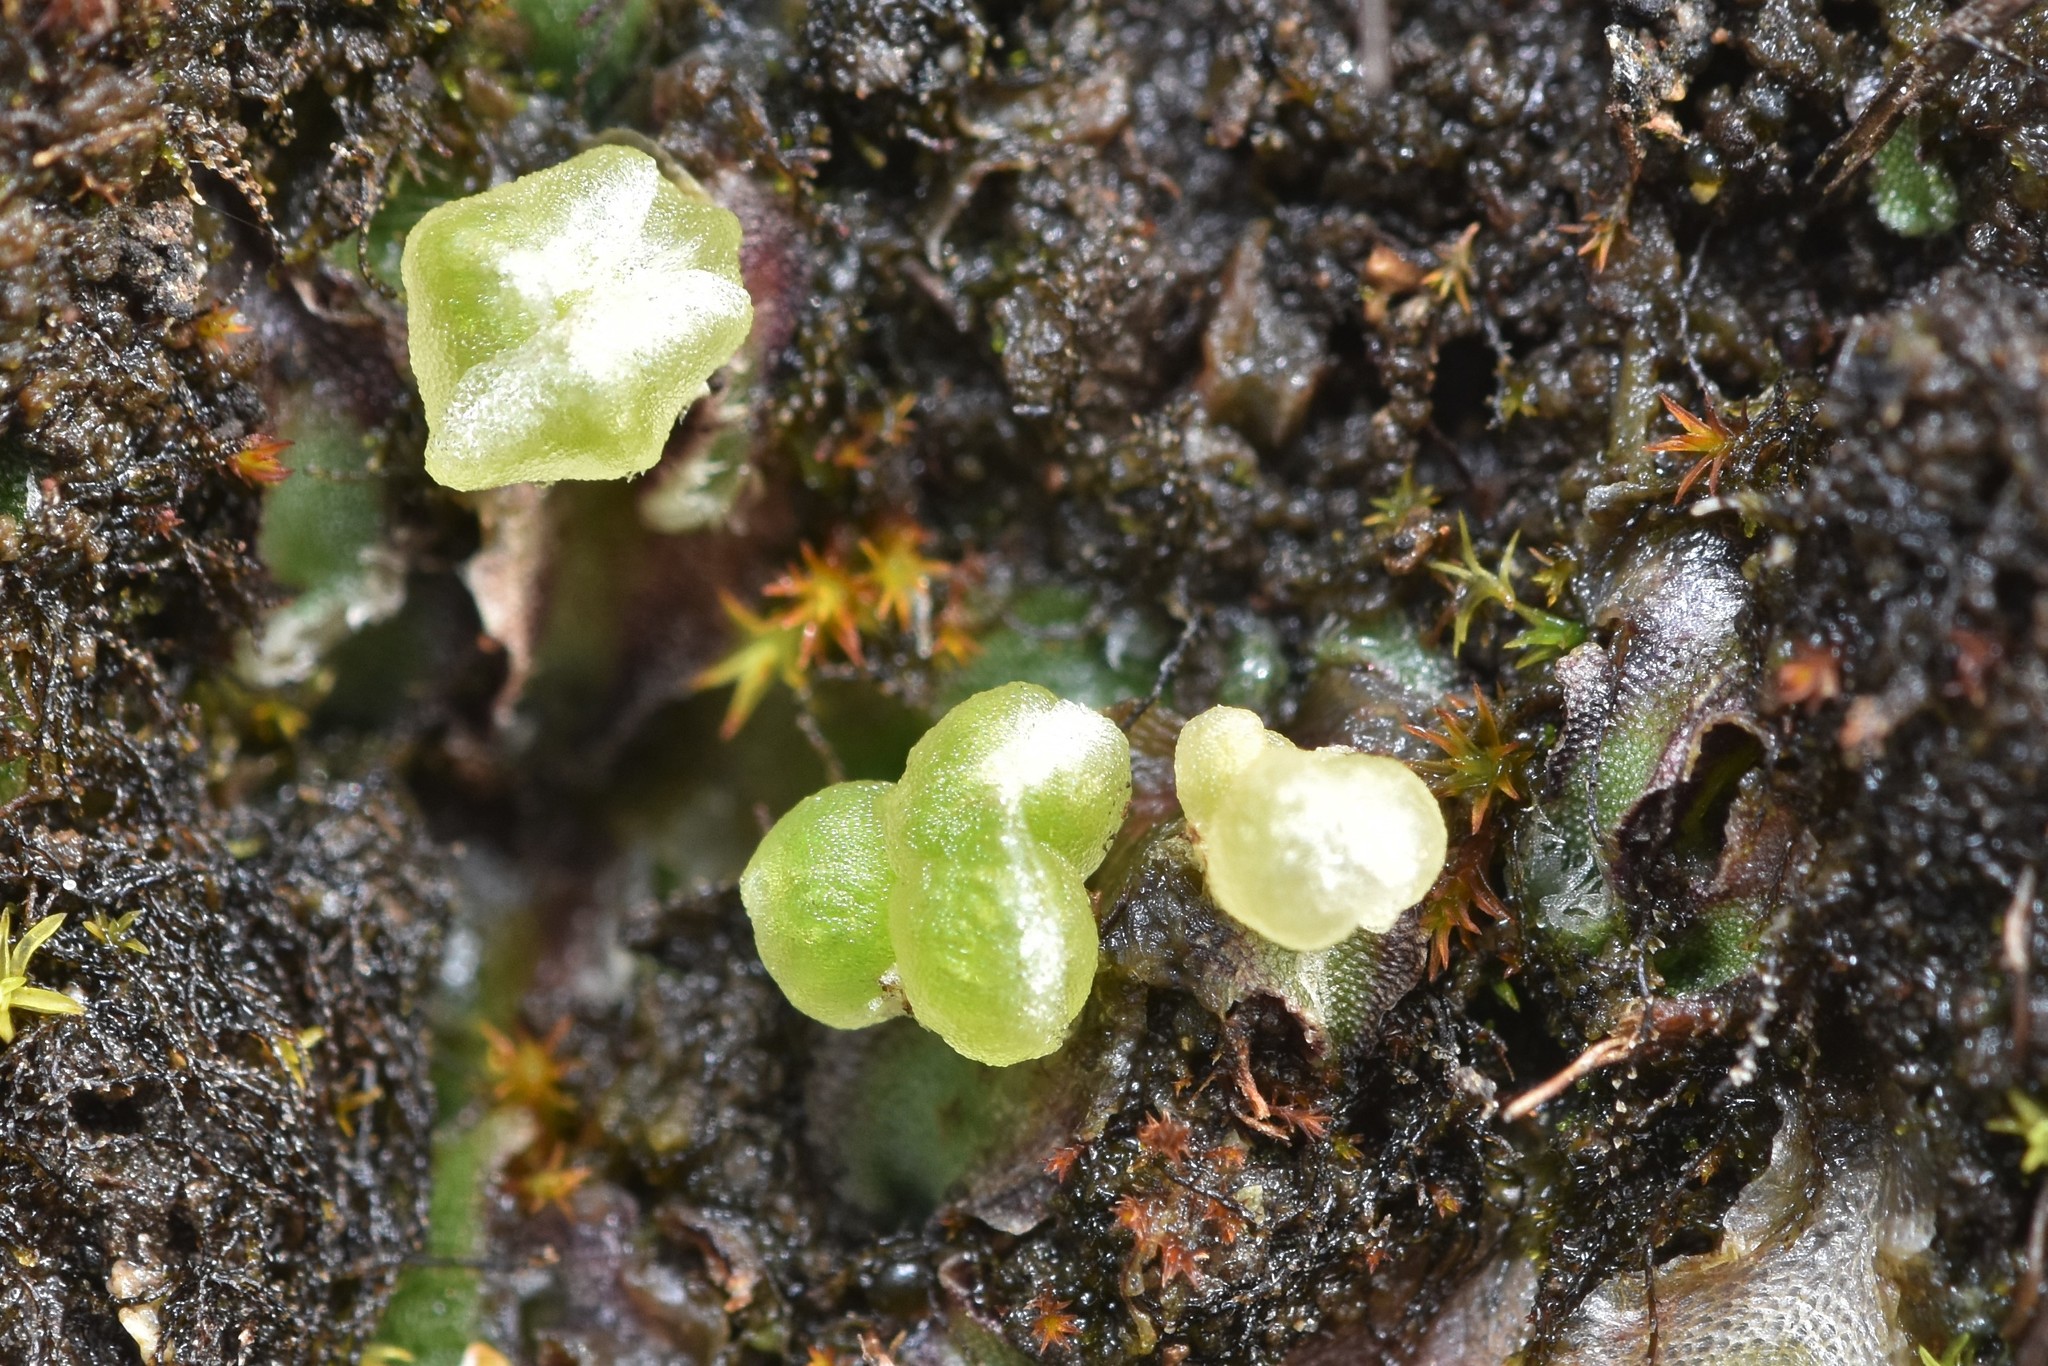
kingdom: Plantae
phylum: Marchantiophyta
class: Marchantiopsida
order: Marchantiales
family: Cleveaceae
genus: Clevea
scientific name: Clevea hyalina
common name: Hyaline liverwort
